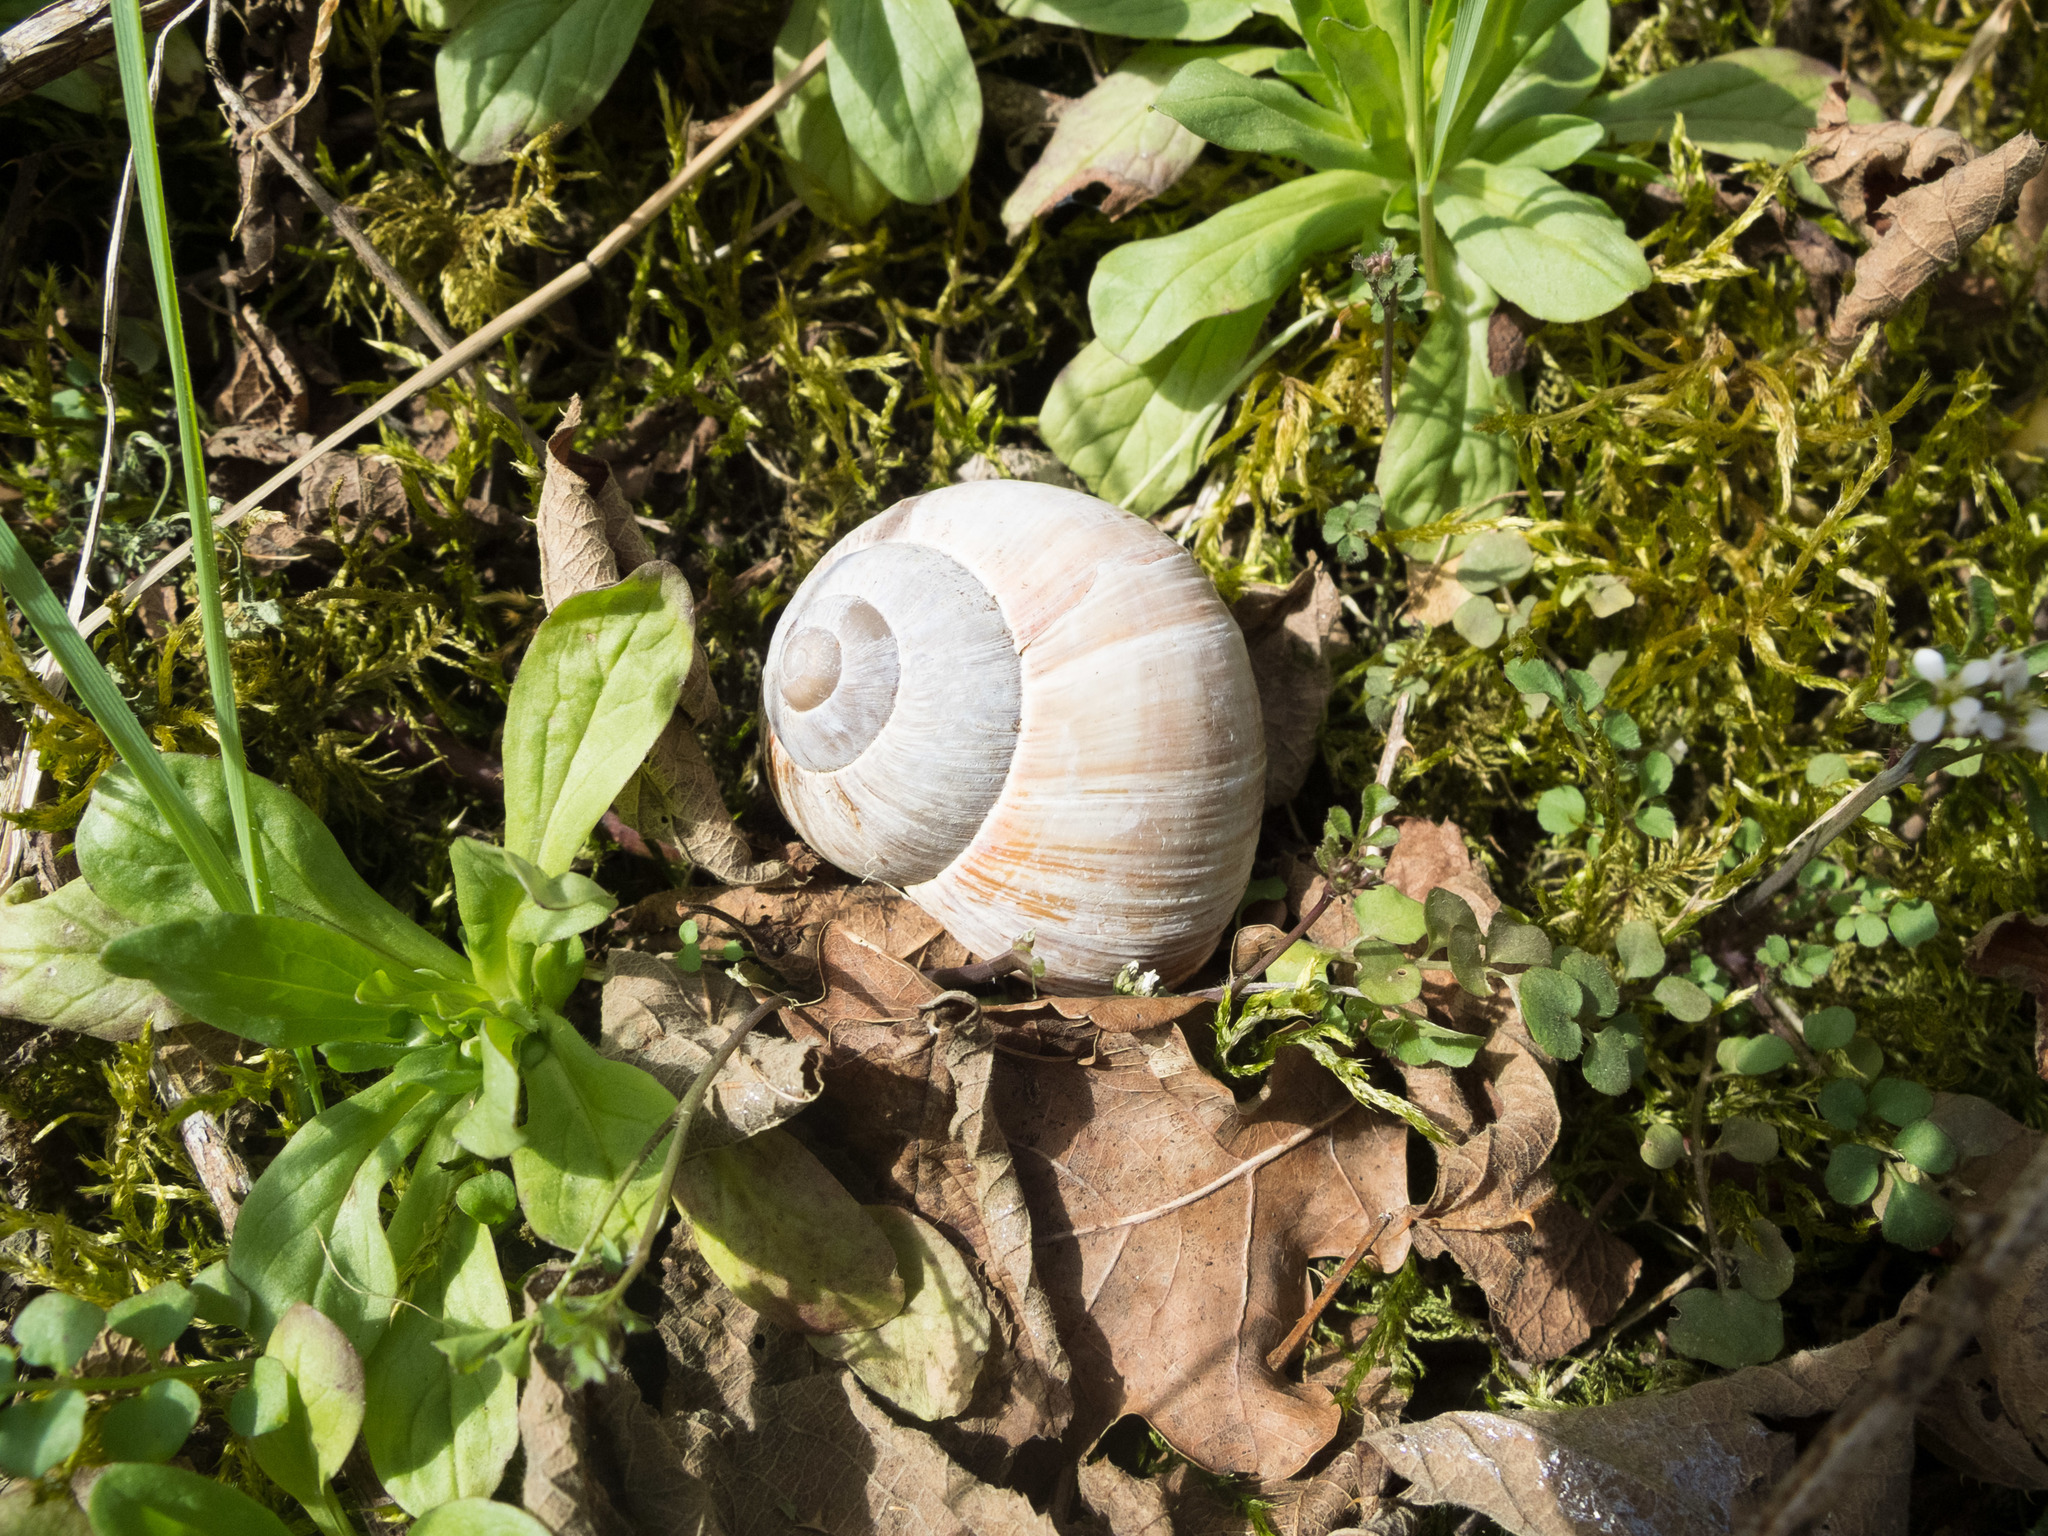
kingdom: Animalia
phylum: Mollusca
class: Gastropoda
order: Stylommatophora
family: Helicidae
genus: Helix
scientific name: Helix pomatia
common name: Roman snail
